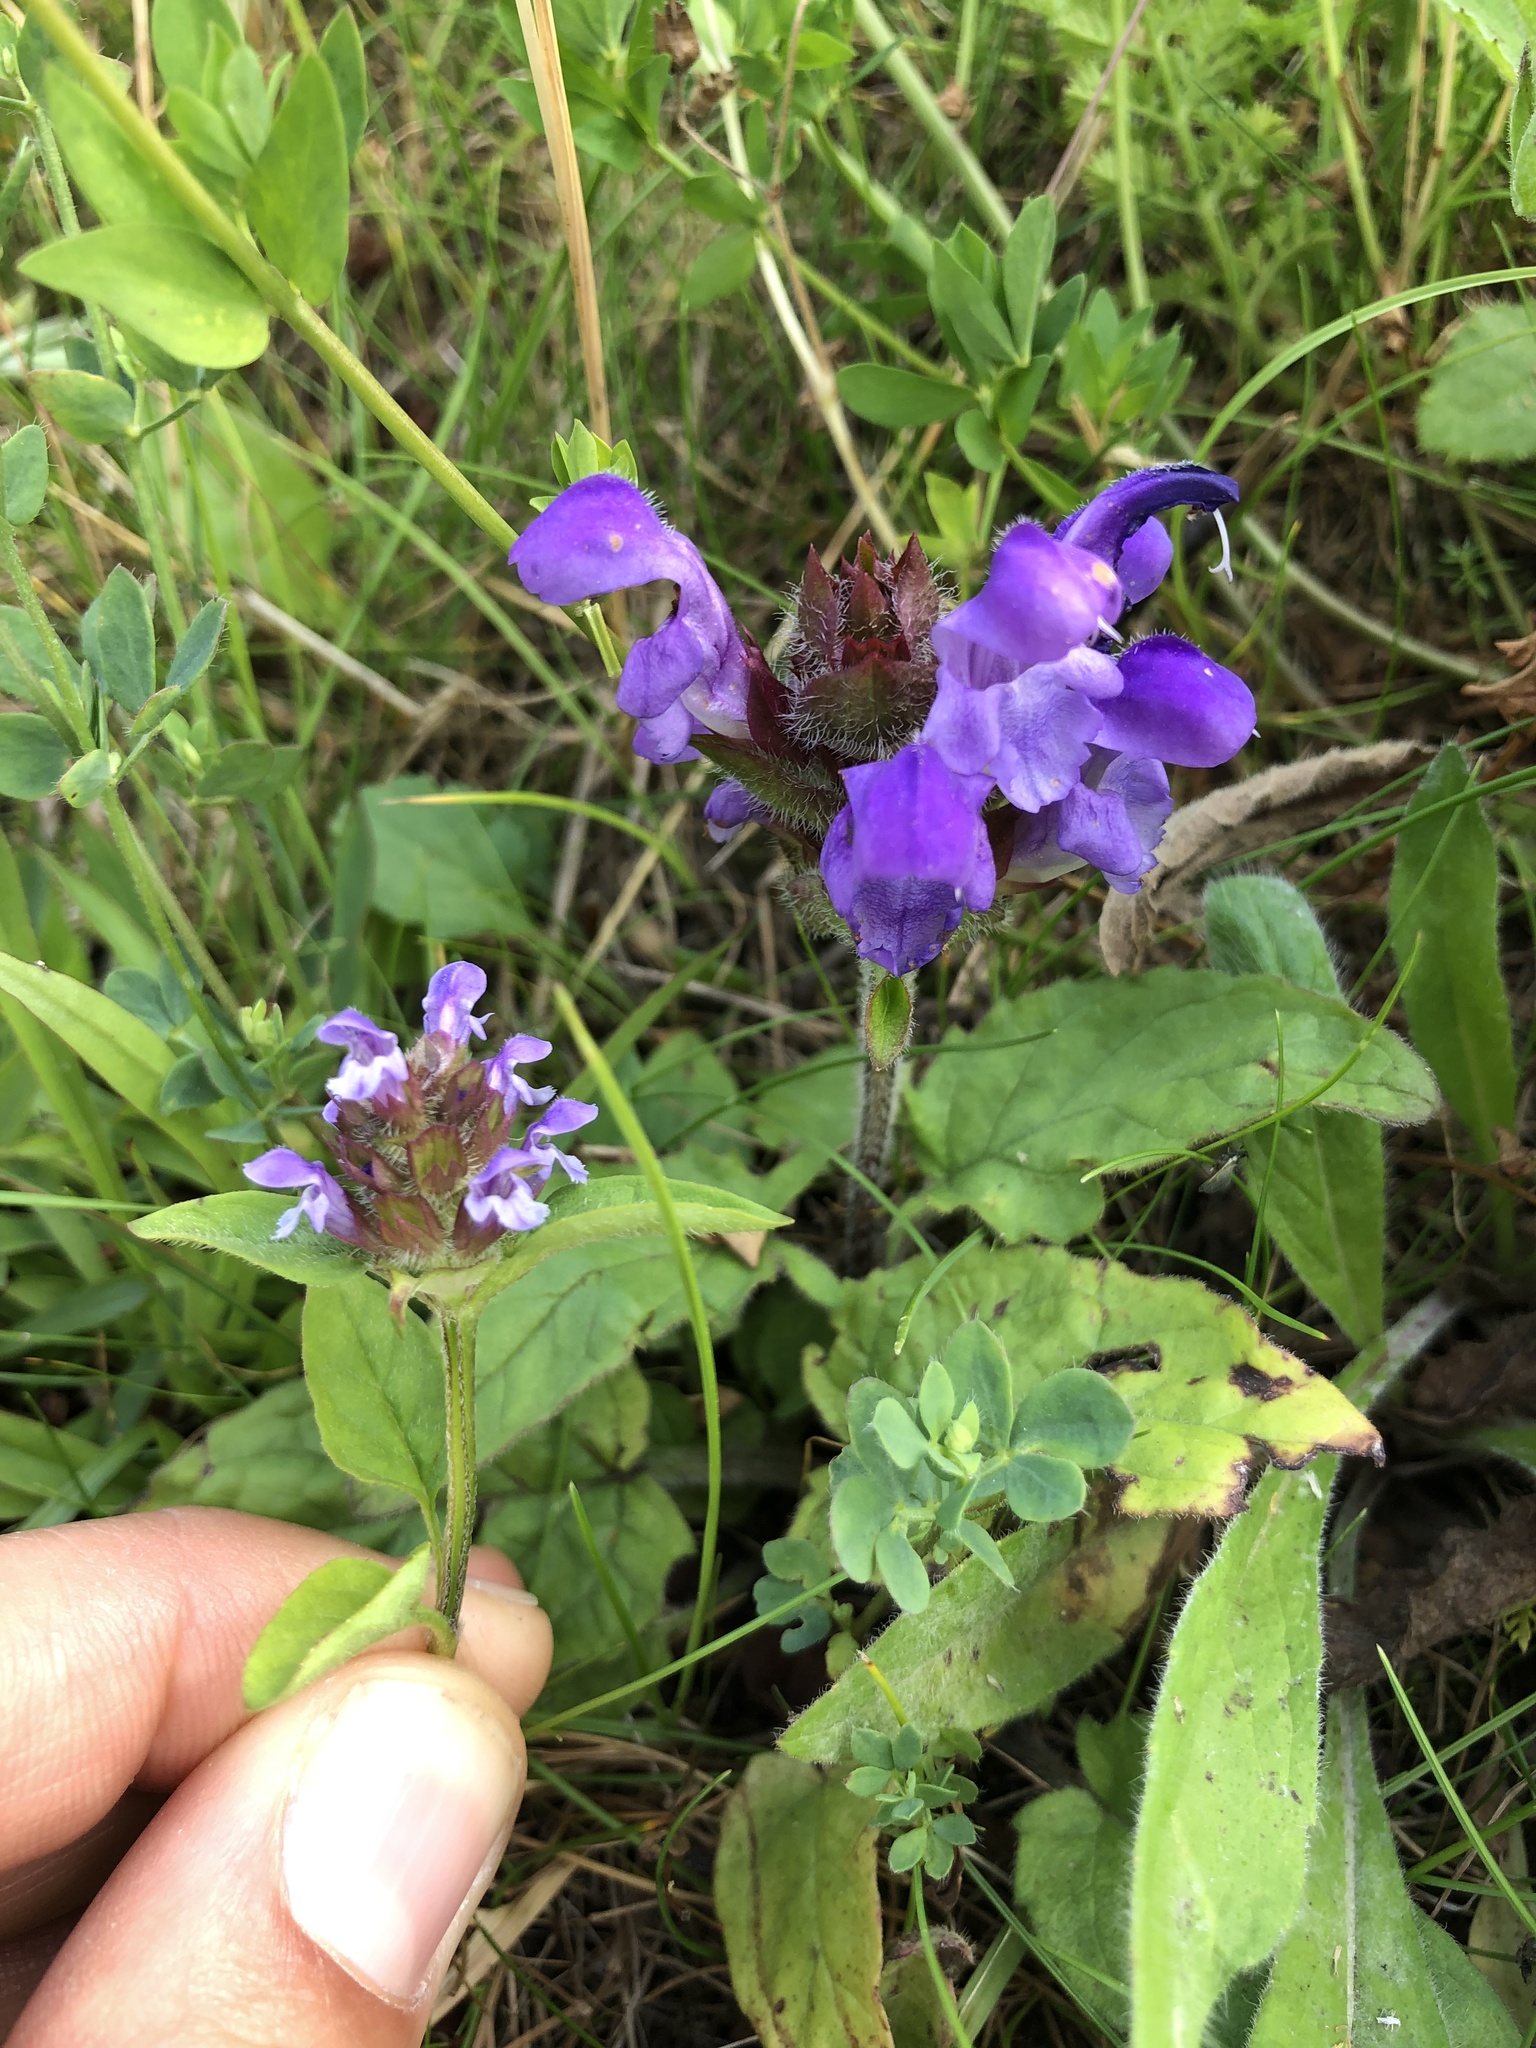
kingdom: Plantae
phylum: Tracheophyta
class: Magnoliopsida
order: Lamiales
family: Lamiaceae
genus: Prunella
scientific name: Prunella grandiflora
